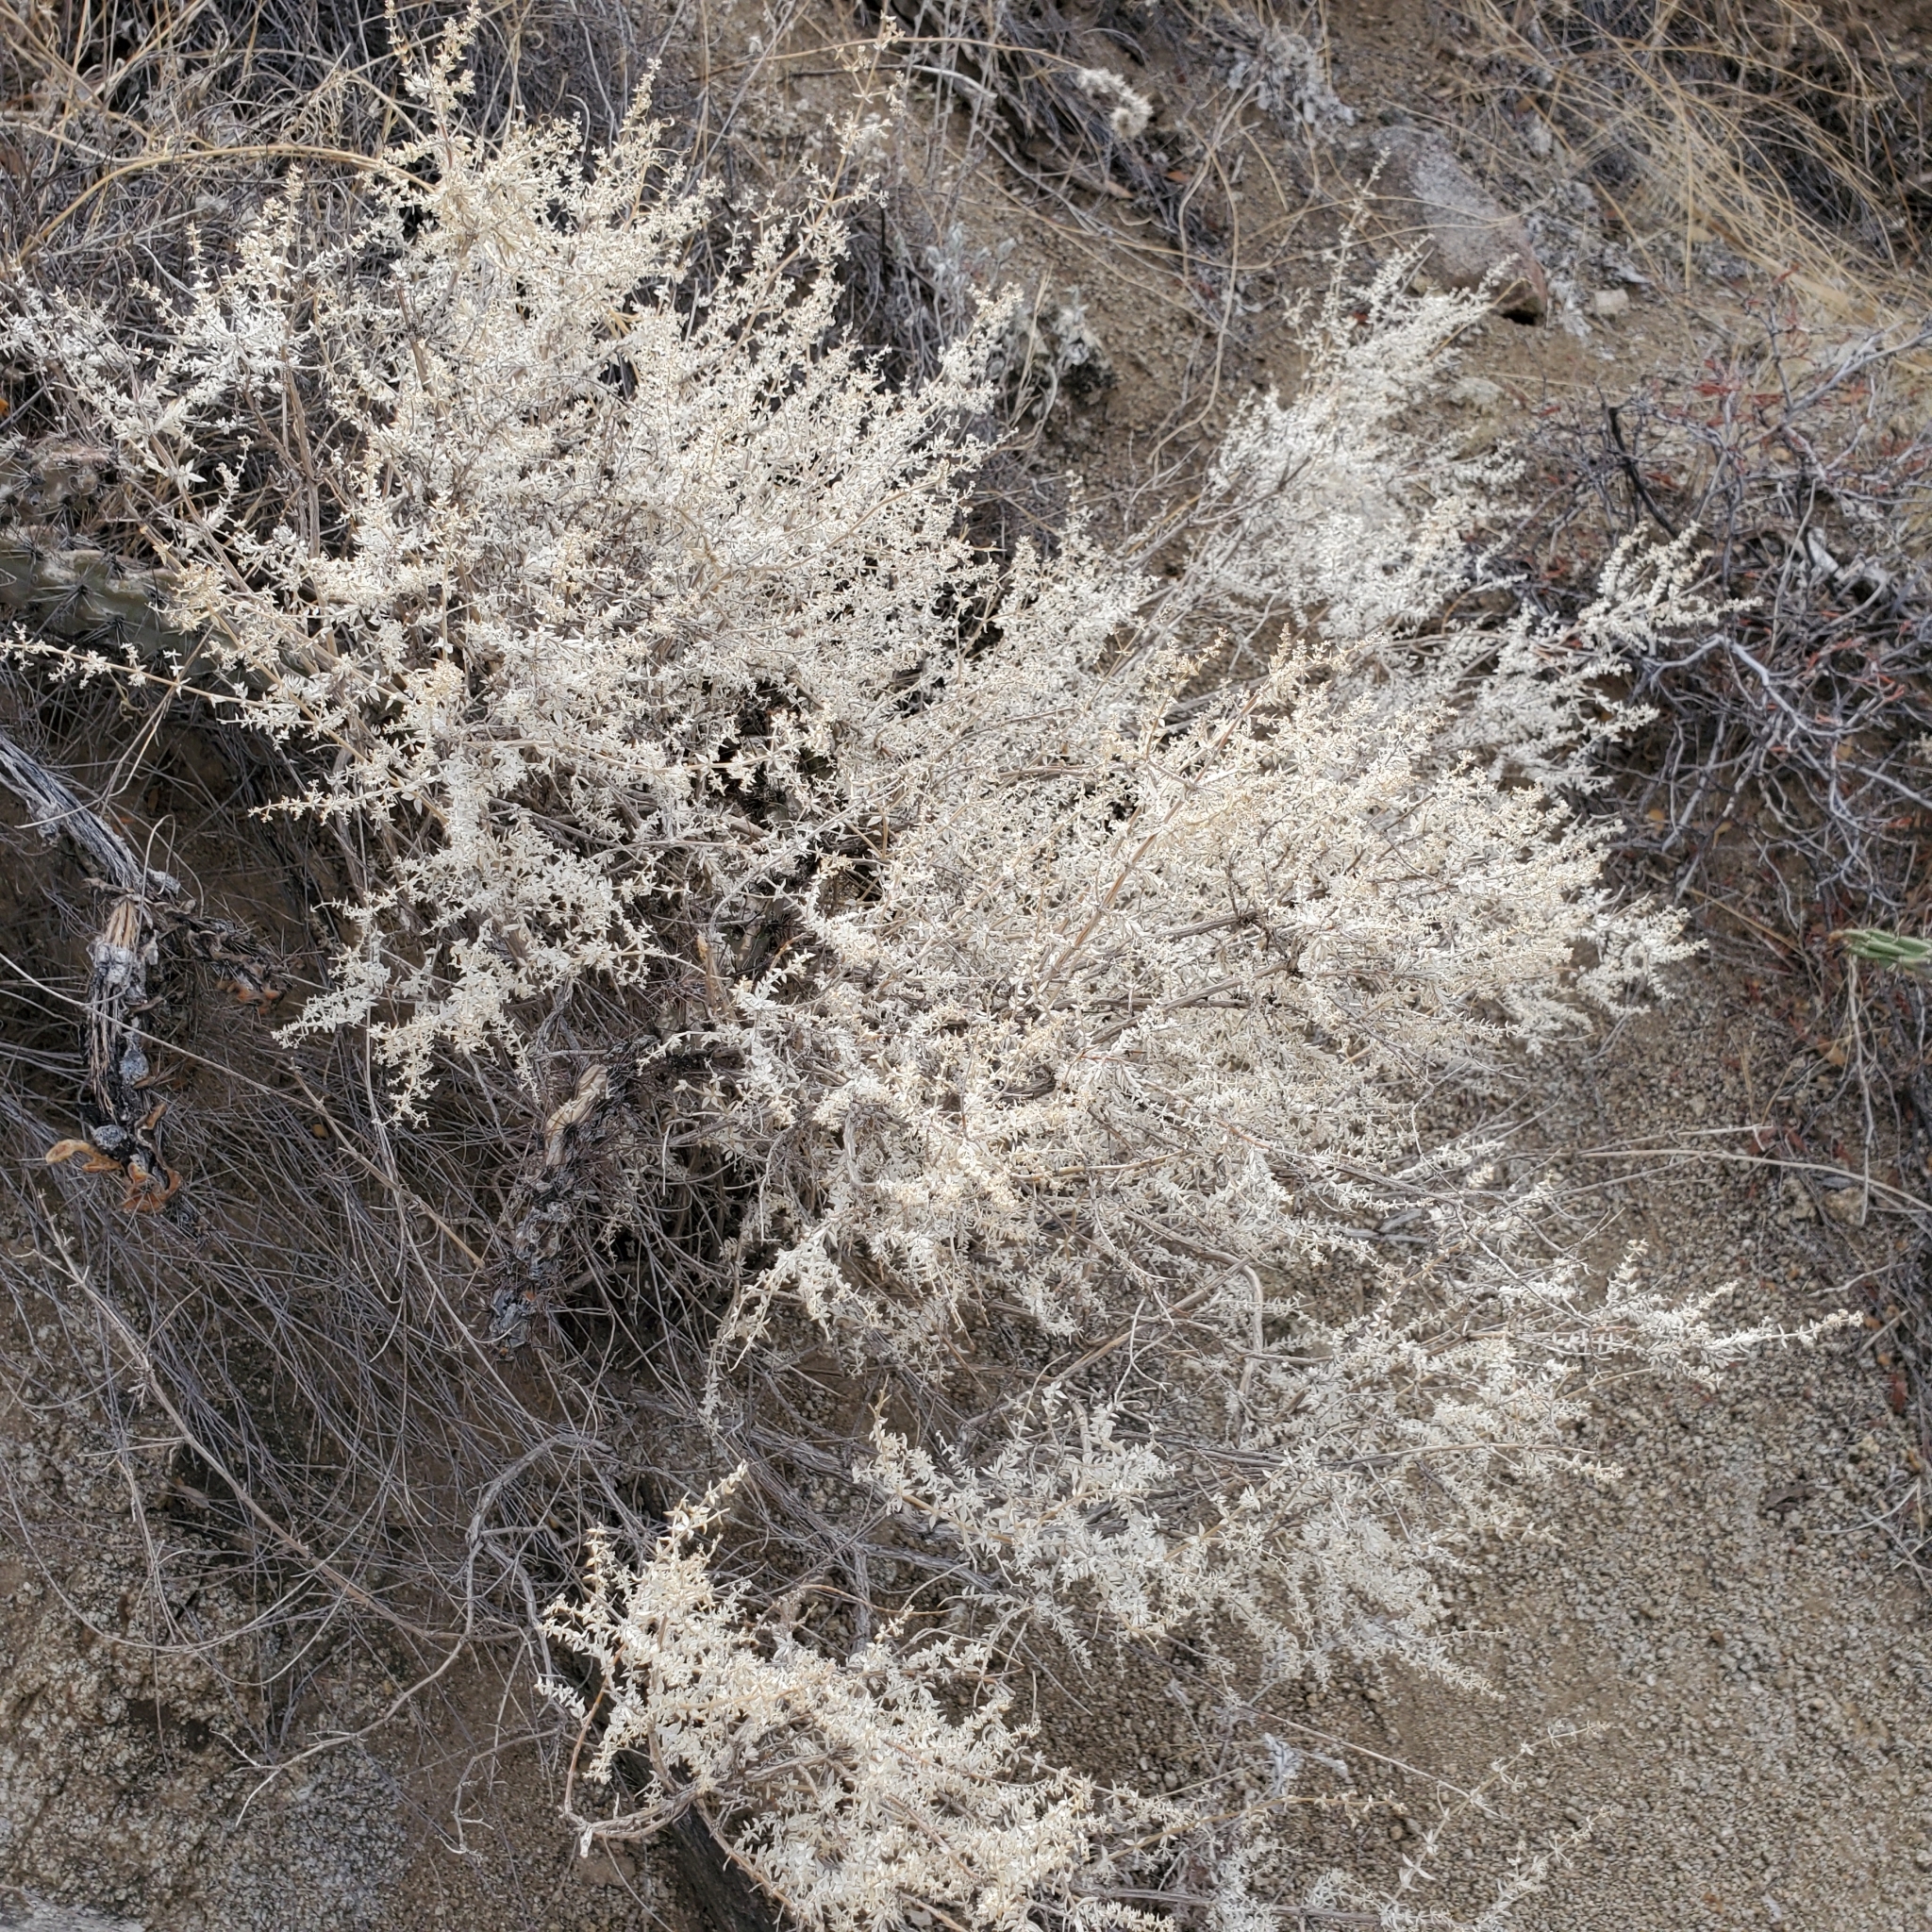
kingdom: Plantae
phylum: Tracheophyta
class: Magnoliopsida
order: Gentianales
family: Rubiaceae
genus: Galium
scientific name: Galium stellatum
